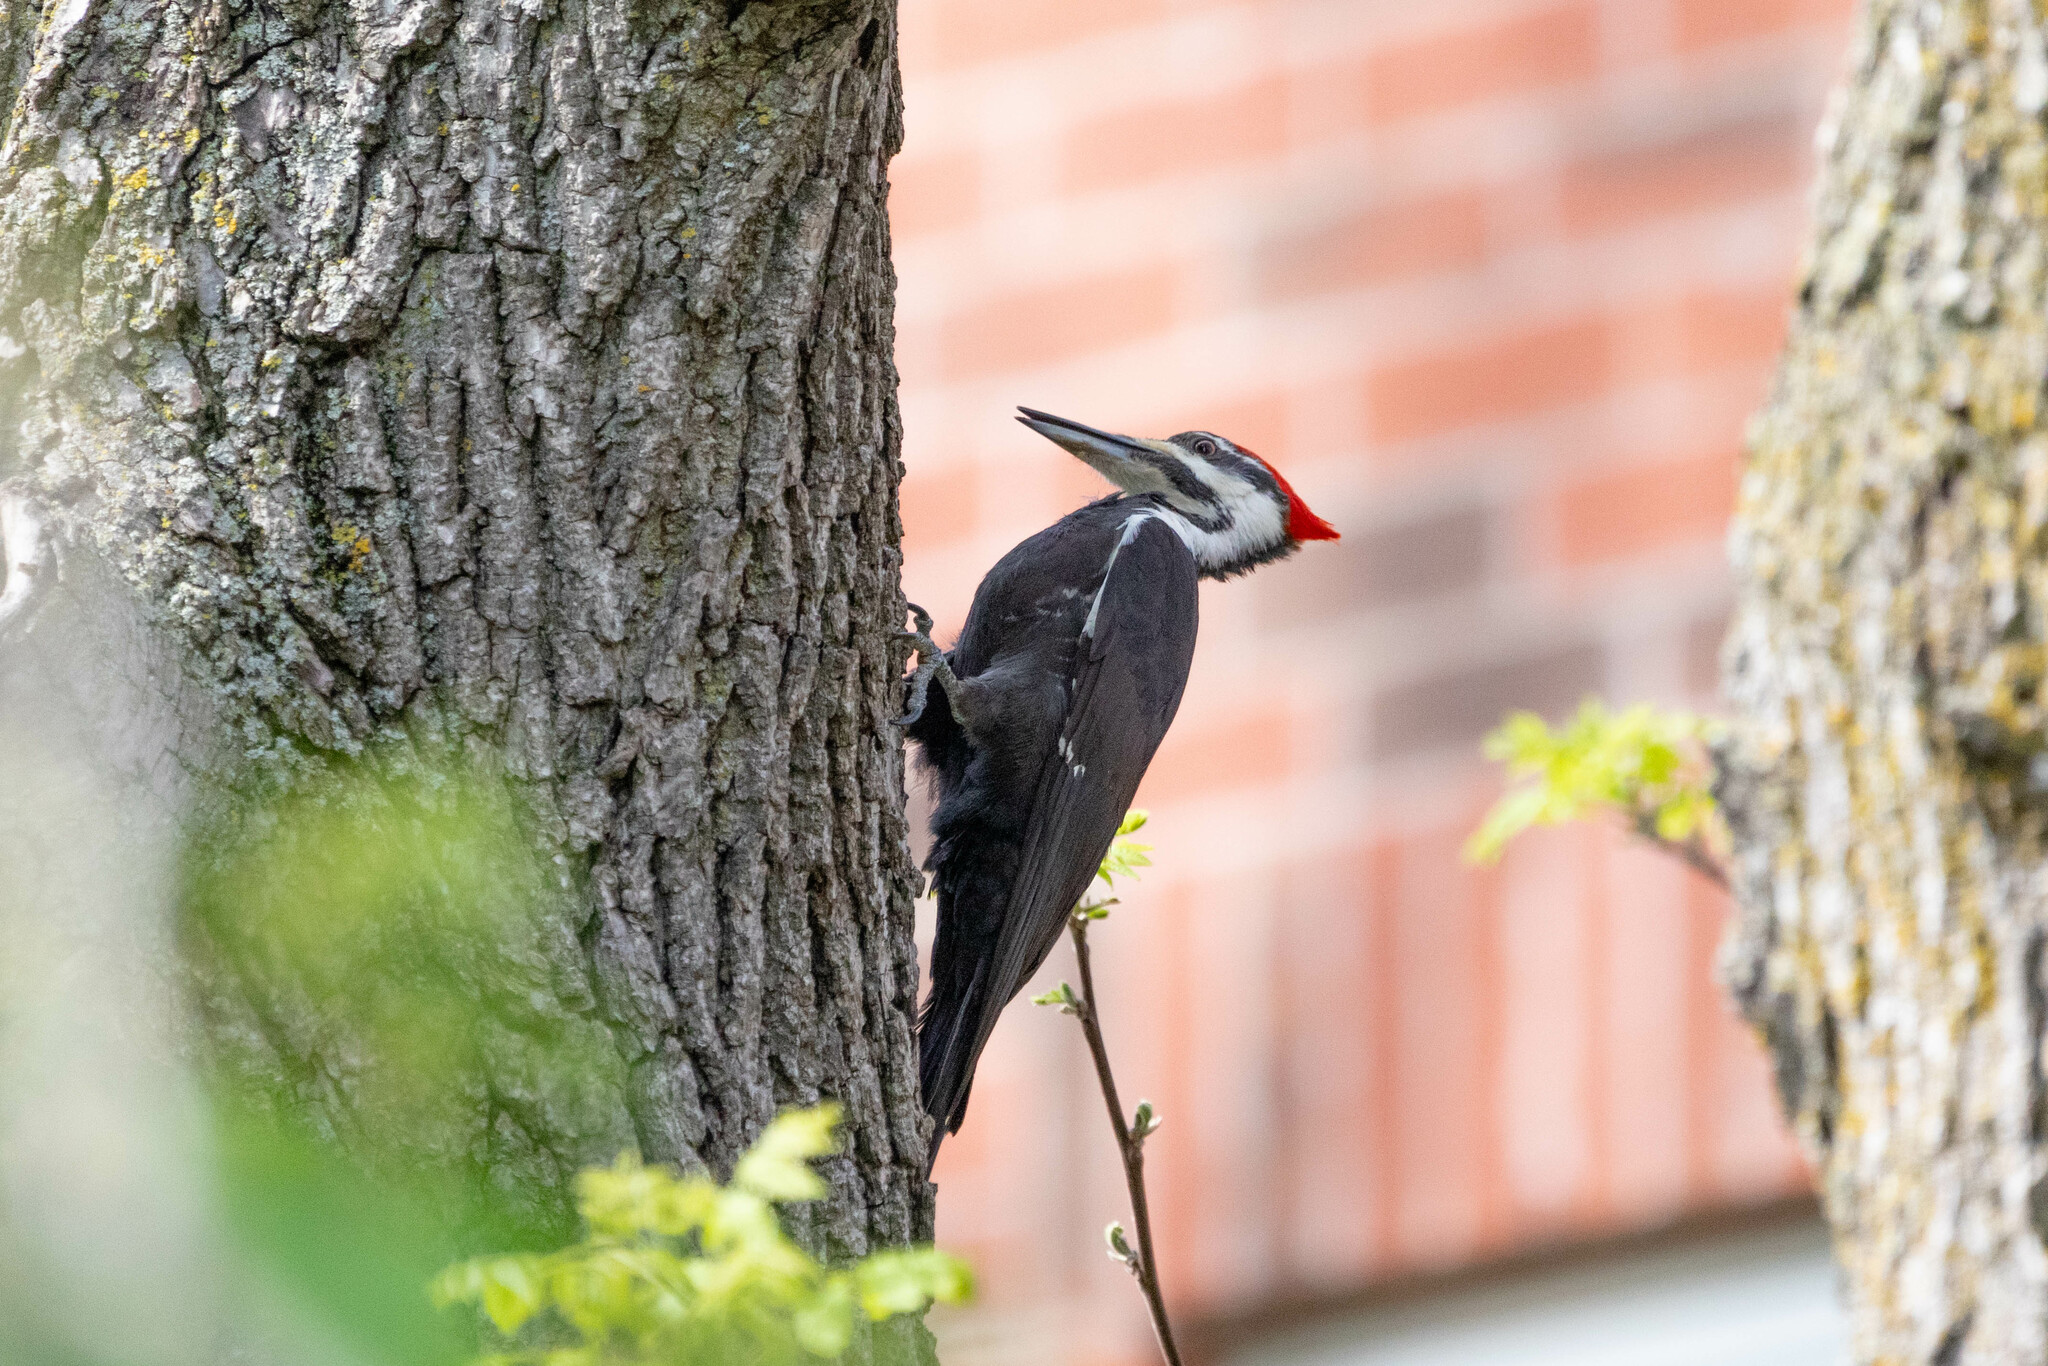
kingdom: Animalia
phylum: Chordata
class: Aves
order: Piciformes
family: Picidae
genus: Dryocopus
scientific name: Dryocopus pileatus
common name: Pileated woodpecker
